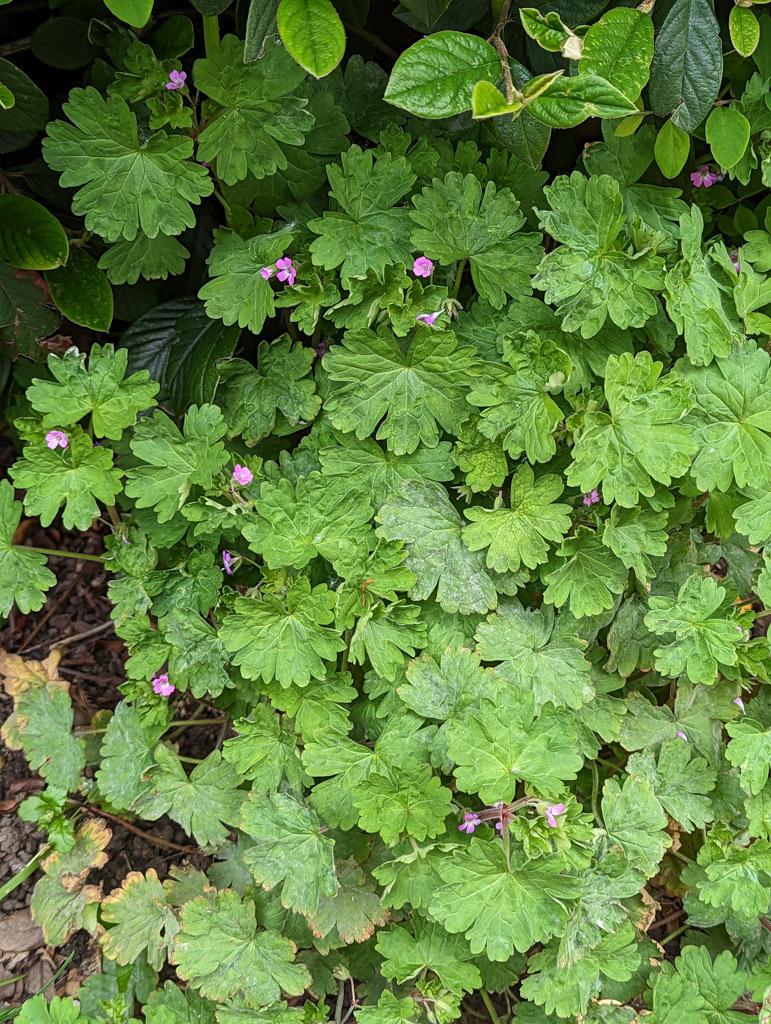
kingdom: Plantae
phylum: Tracheophyta
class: Magnoliopsida
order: Geraniales
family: Geraniaceae
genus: Geranium
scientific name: Geranium rotundifolium
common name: Round-leaved crane's-bill
